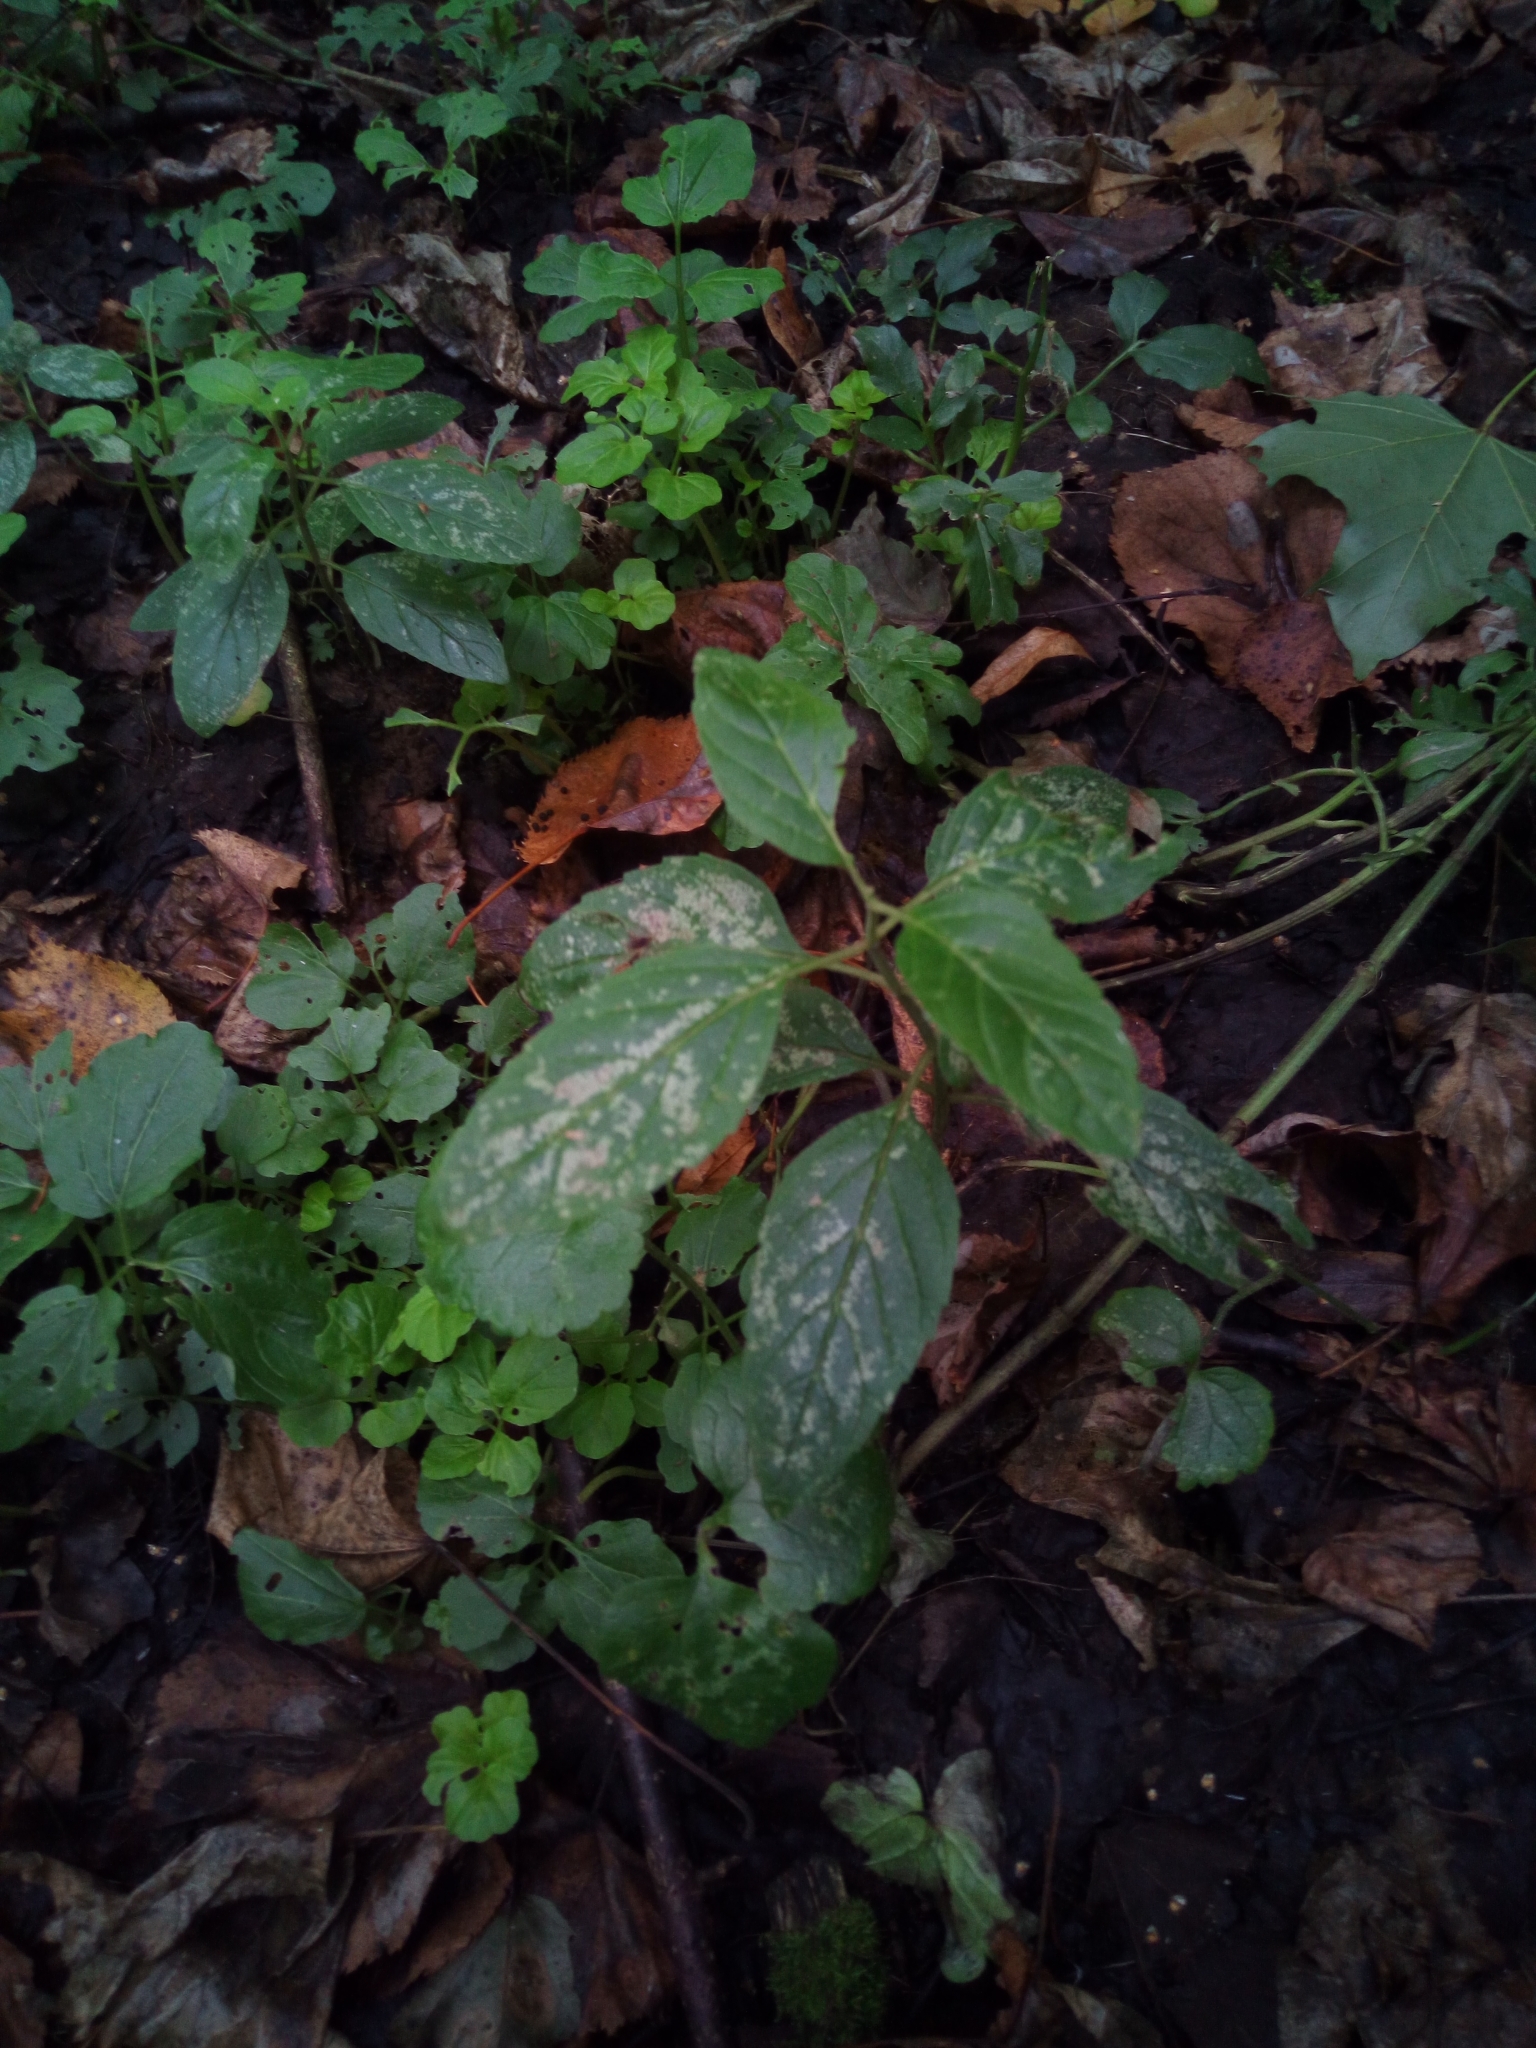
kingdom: Plantae
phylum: Tracheophyta
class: Magnoliopsida
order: Lamiales
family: Lamiaceae
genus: Mentha
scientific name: Mentha arvensis
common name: Corn mint
